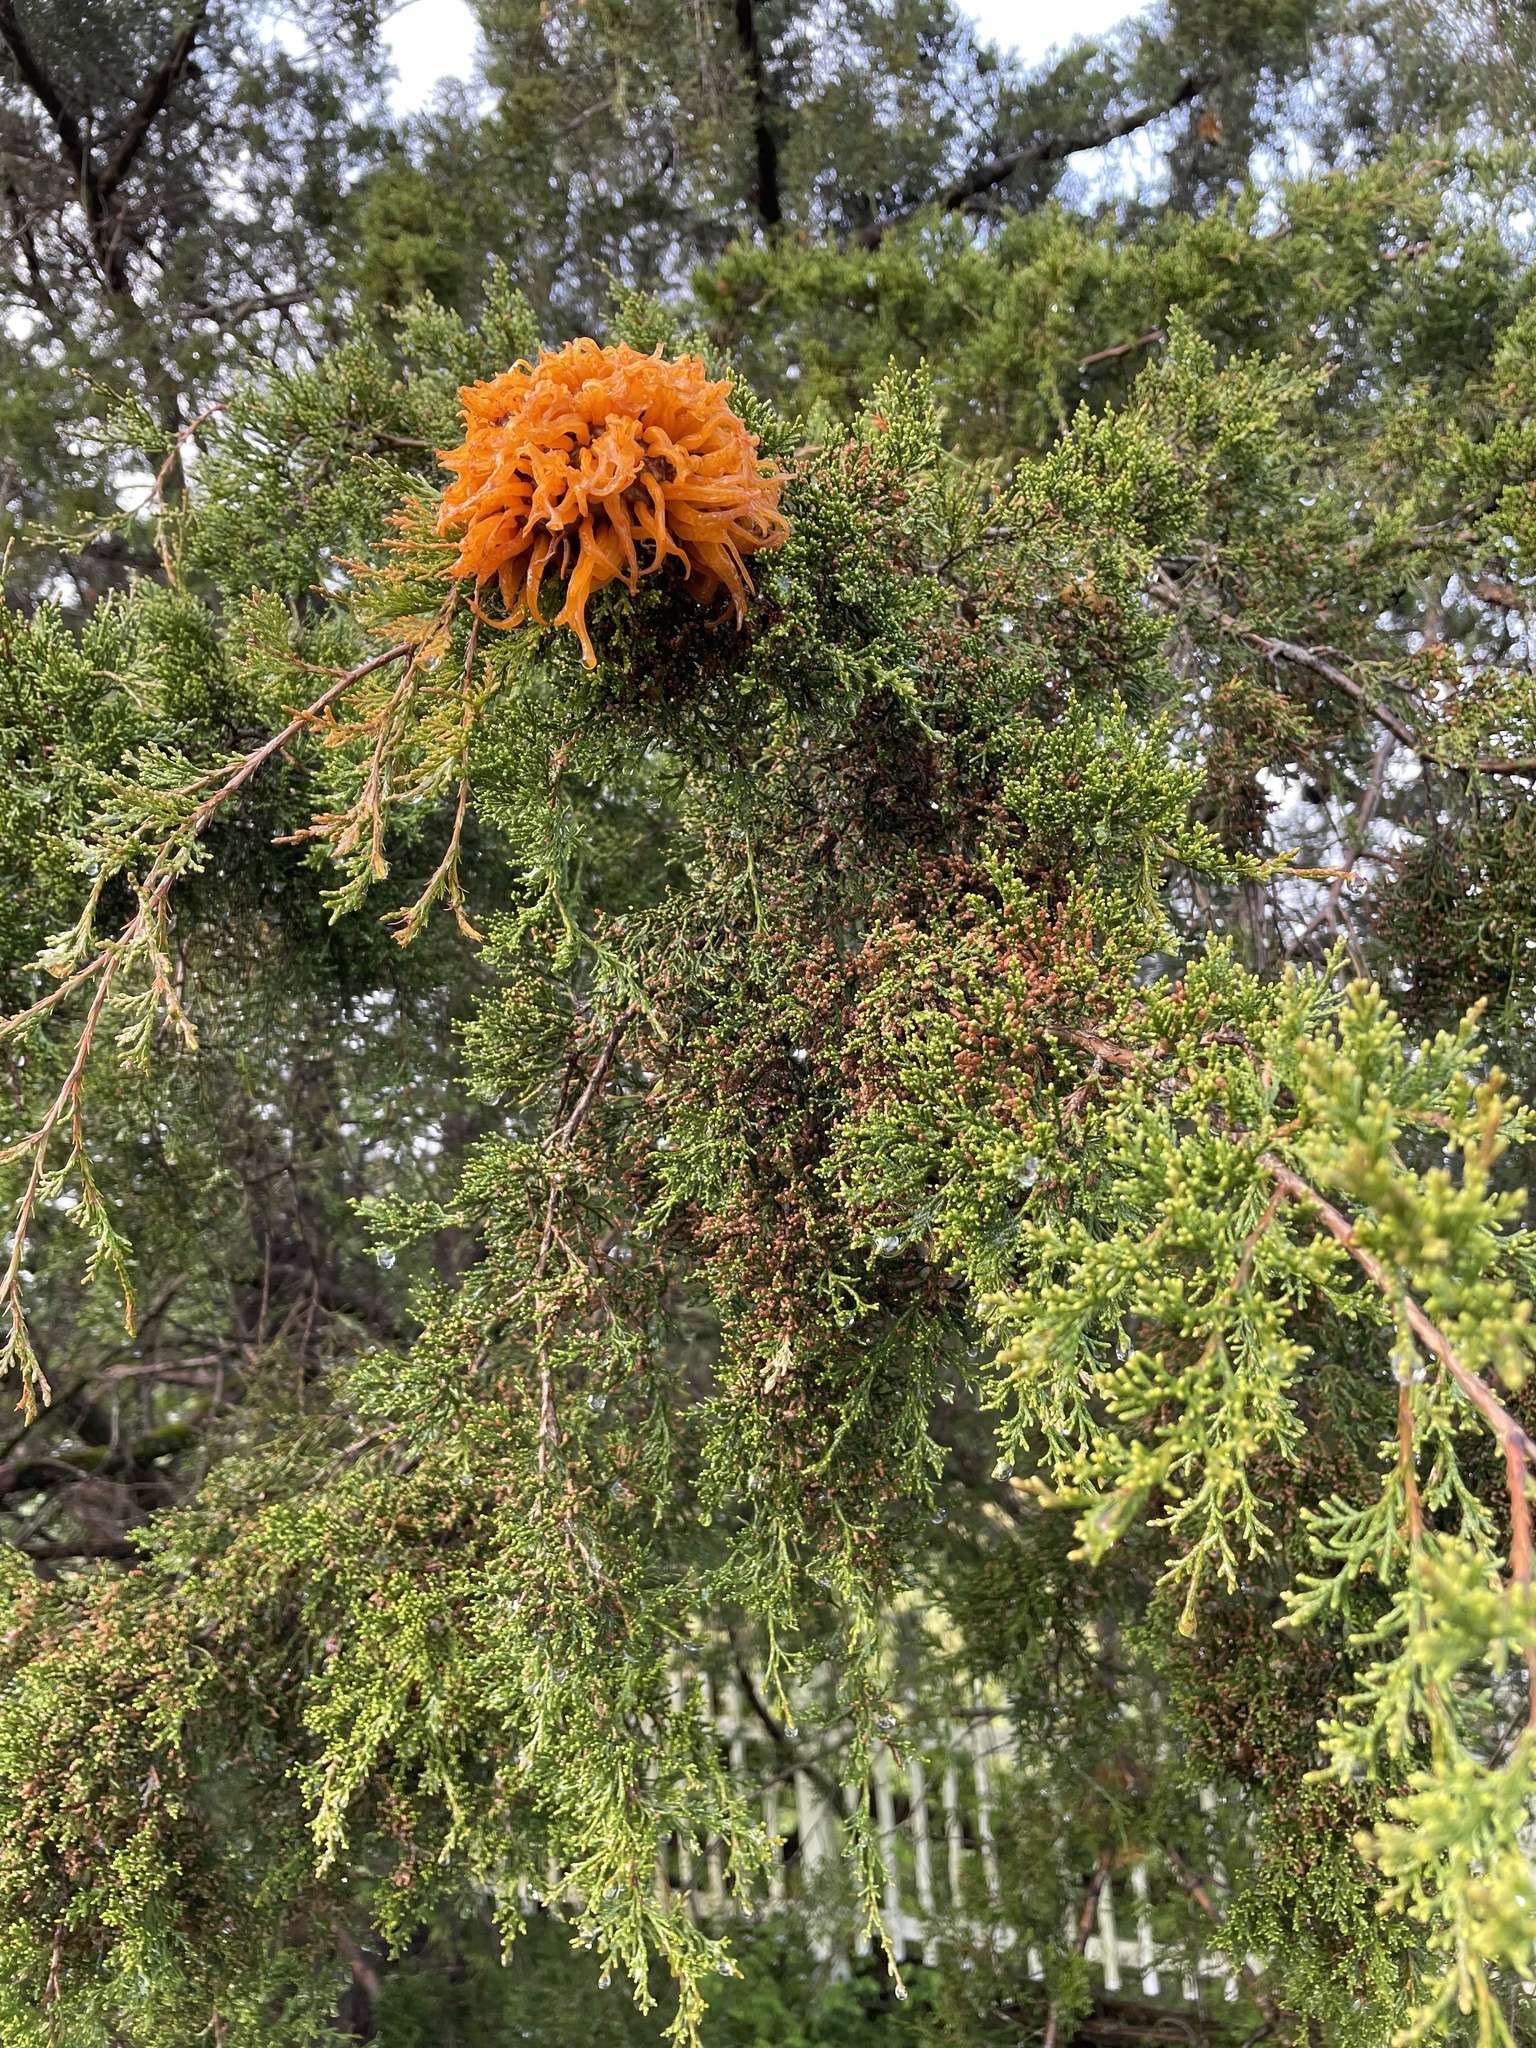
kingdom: Fungi
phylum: Basidiomycota
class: Pucciniomycetes
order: Pucciniales
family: Gymnosporangiaceae
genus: Gymnosporangium
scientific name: Gymnosporangium juniperi-virginianae
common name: Juniper-apple rust
